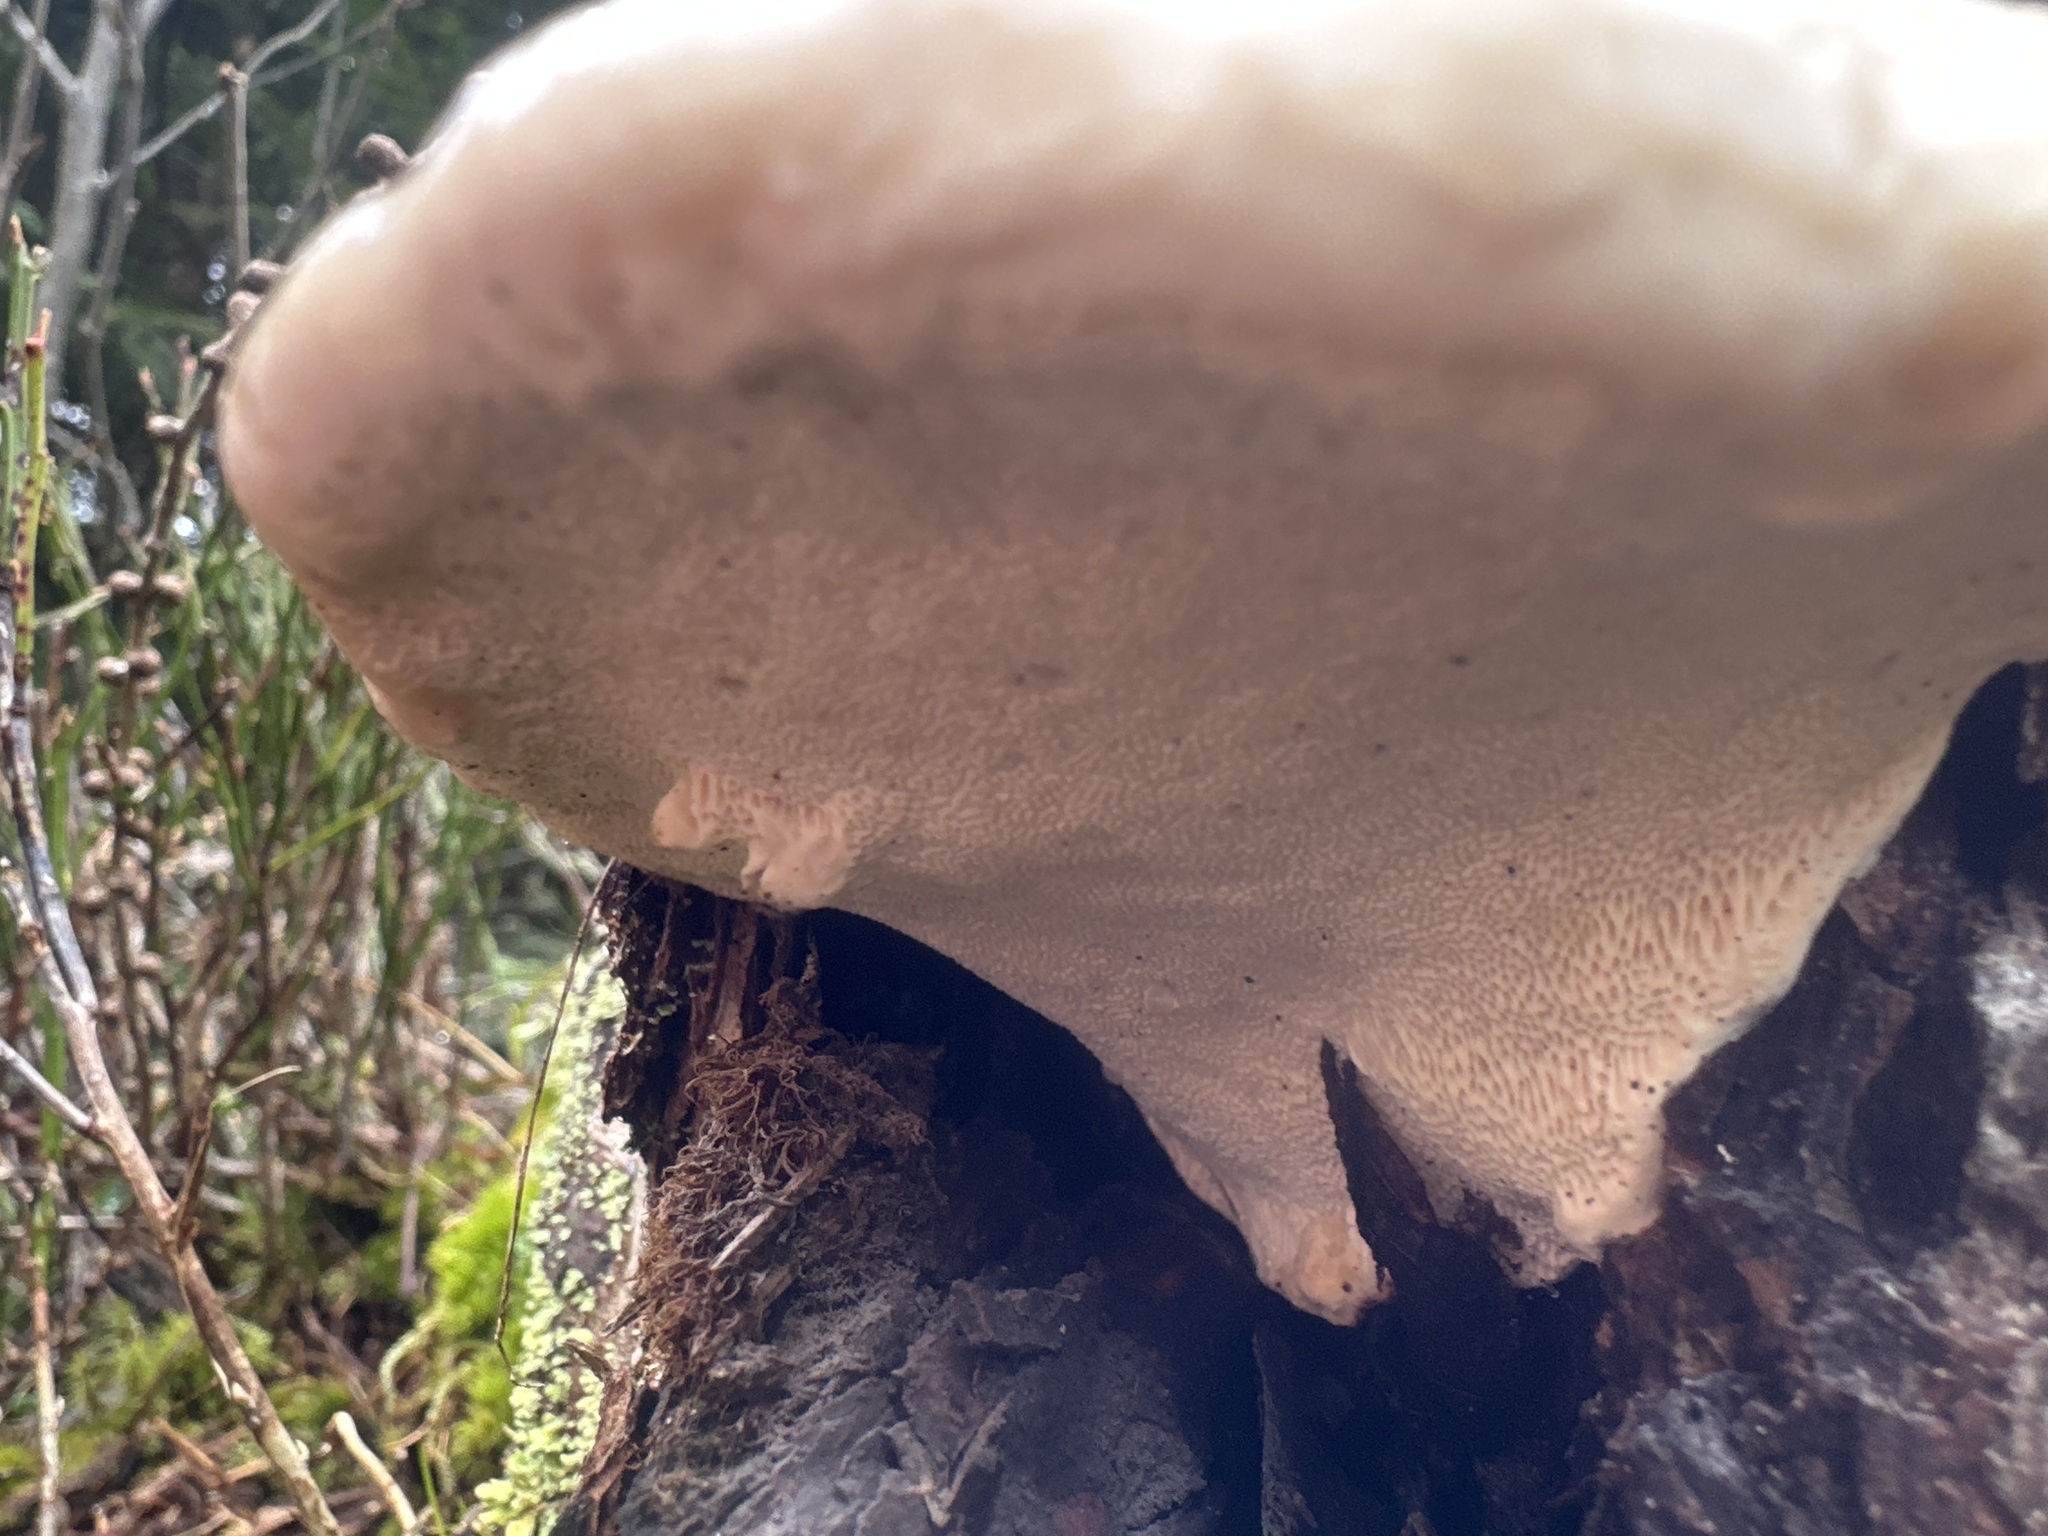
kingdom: Fungi
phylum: Basidiomycota
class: Agaricomycetes
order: Polyporales
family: Fomitopsidaceae
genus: Fomitopsis
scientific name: Fomitopsis pinicola
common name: Red-belted bracket
